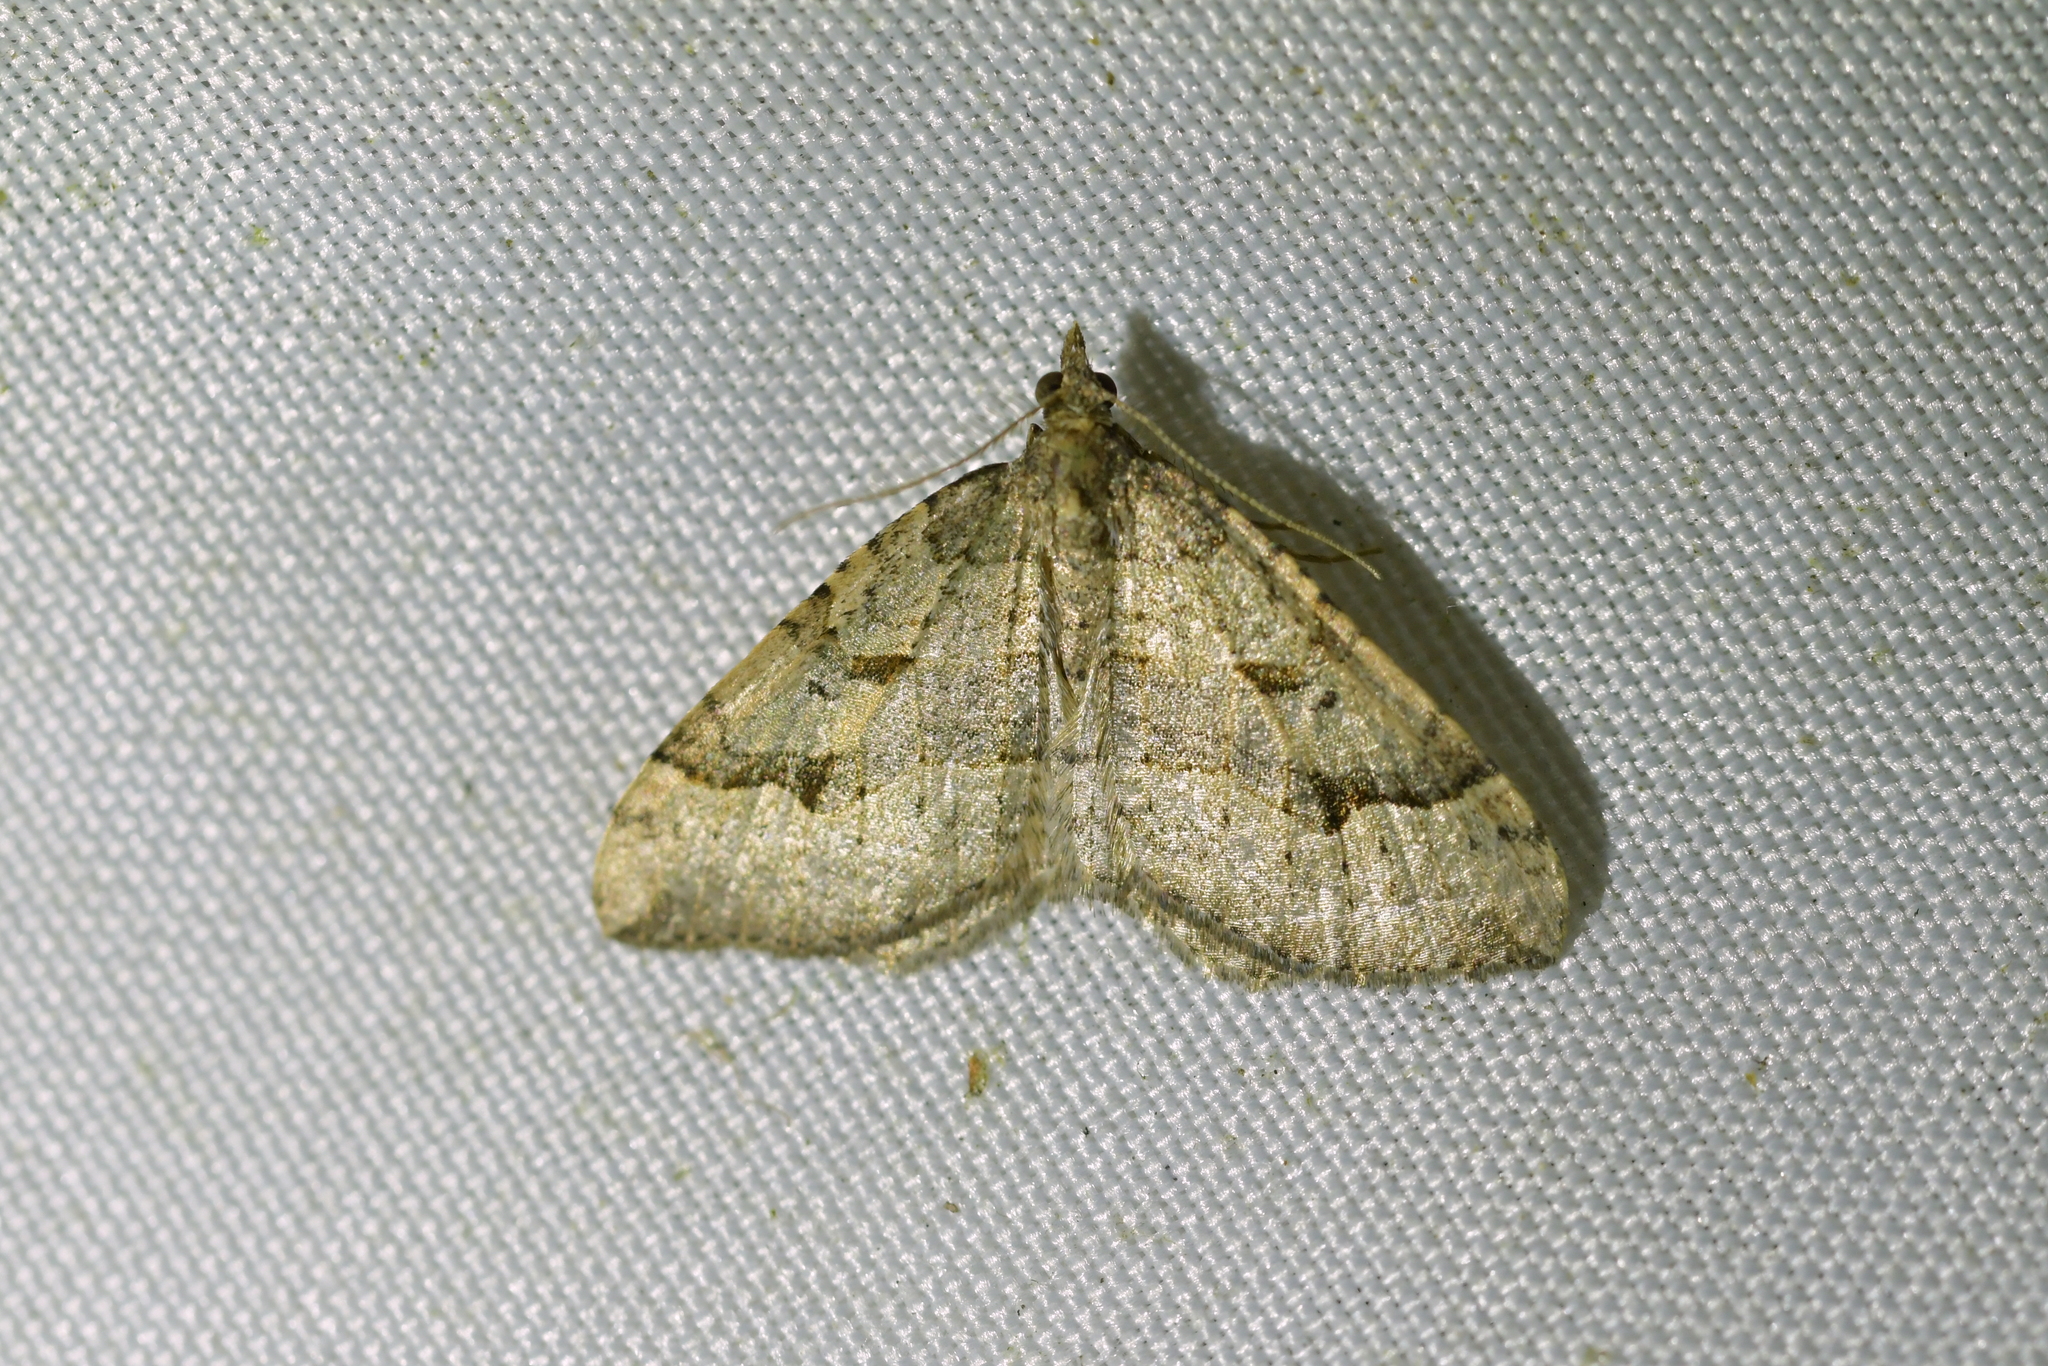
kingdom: Animalia
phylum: Arthropoda
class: Insecta
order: Lepidoptera
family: Geometridae
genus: Epyaxa
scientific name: Epyaxa rosearia
